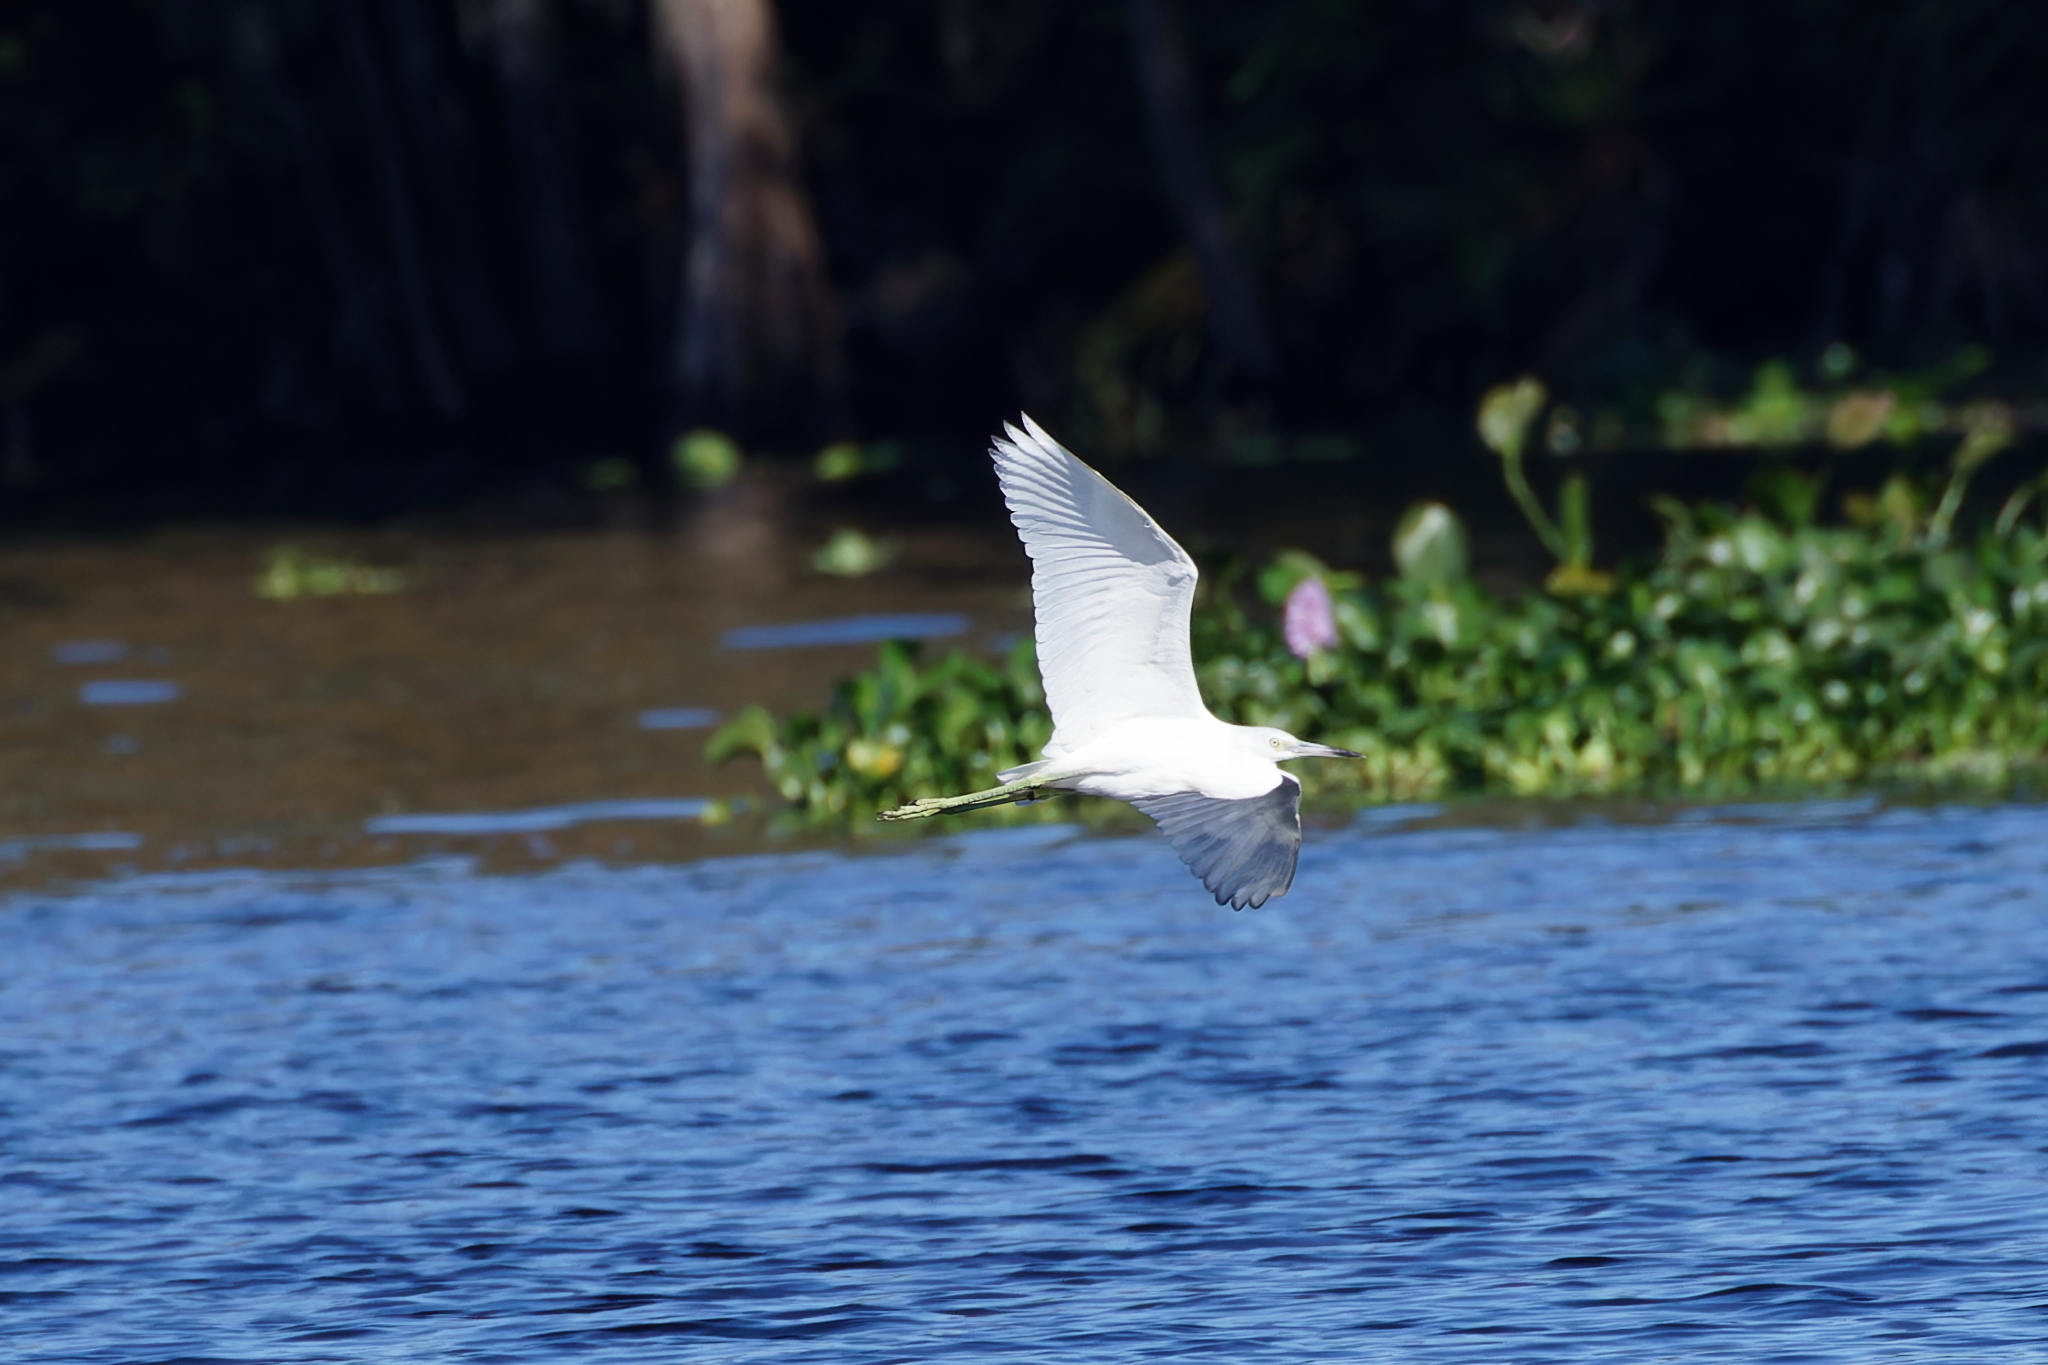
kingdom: Animalia
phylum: Chordata
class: Aves
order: Pelecaniformes
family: Ardeidae
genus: Egretta
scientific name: Egretta caerulea
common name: Little blue heron
